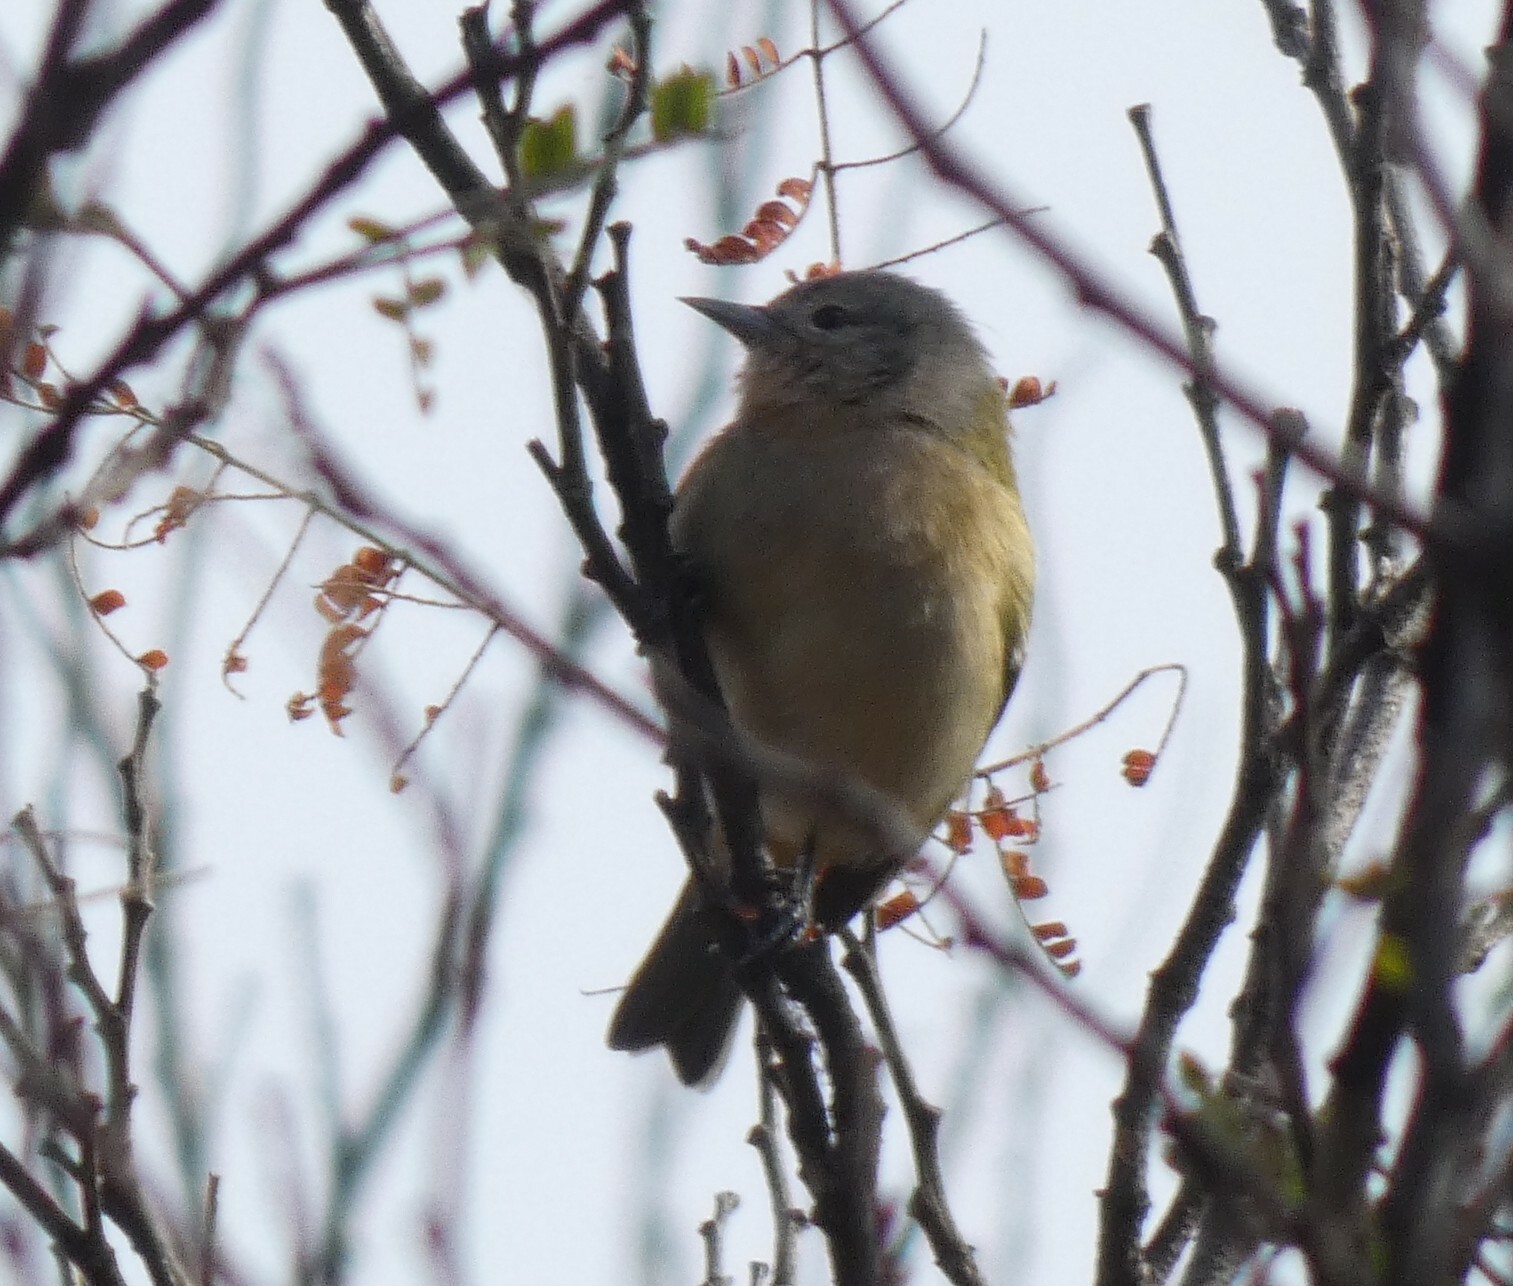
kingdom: Animalia
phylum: Chordata
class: Aves
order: Passeriformes
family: Thraupidae
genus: Conirostrum
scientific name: Conirostrum speciosum
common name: Chestnut-vented conebill
